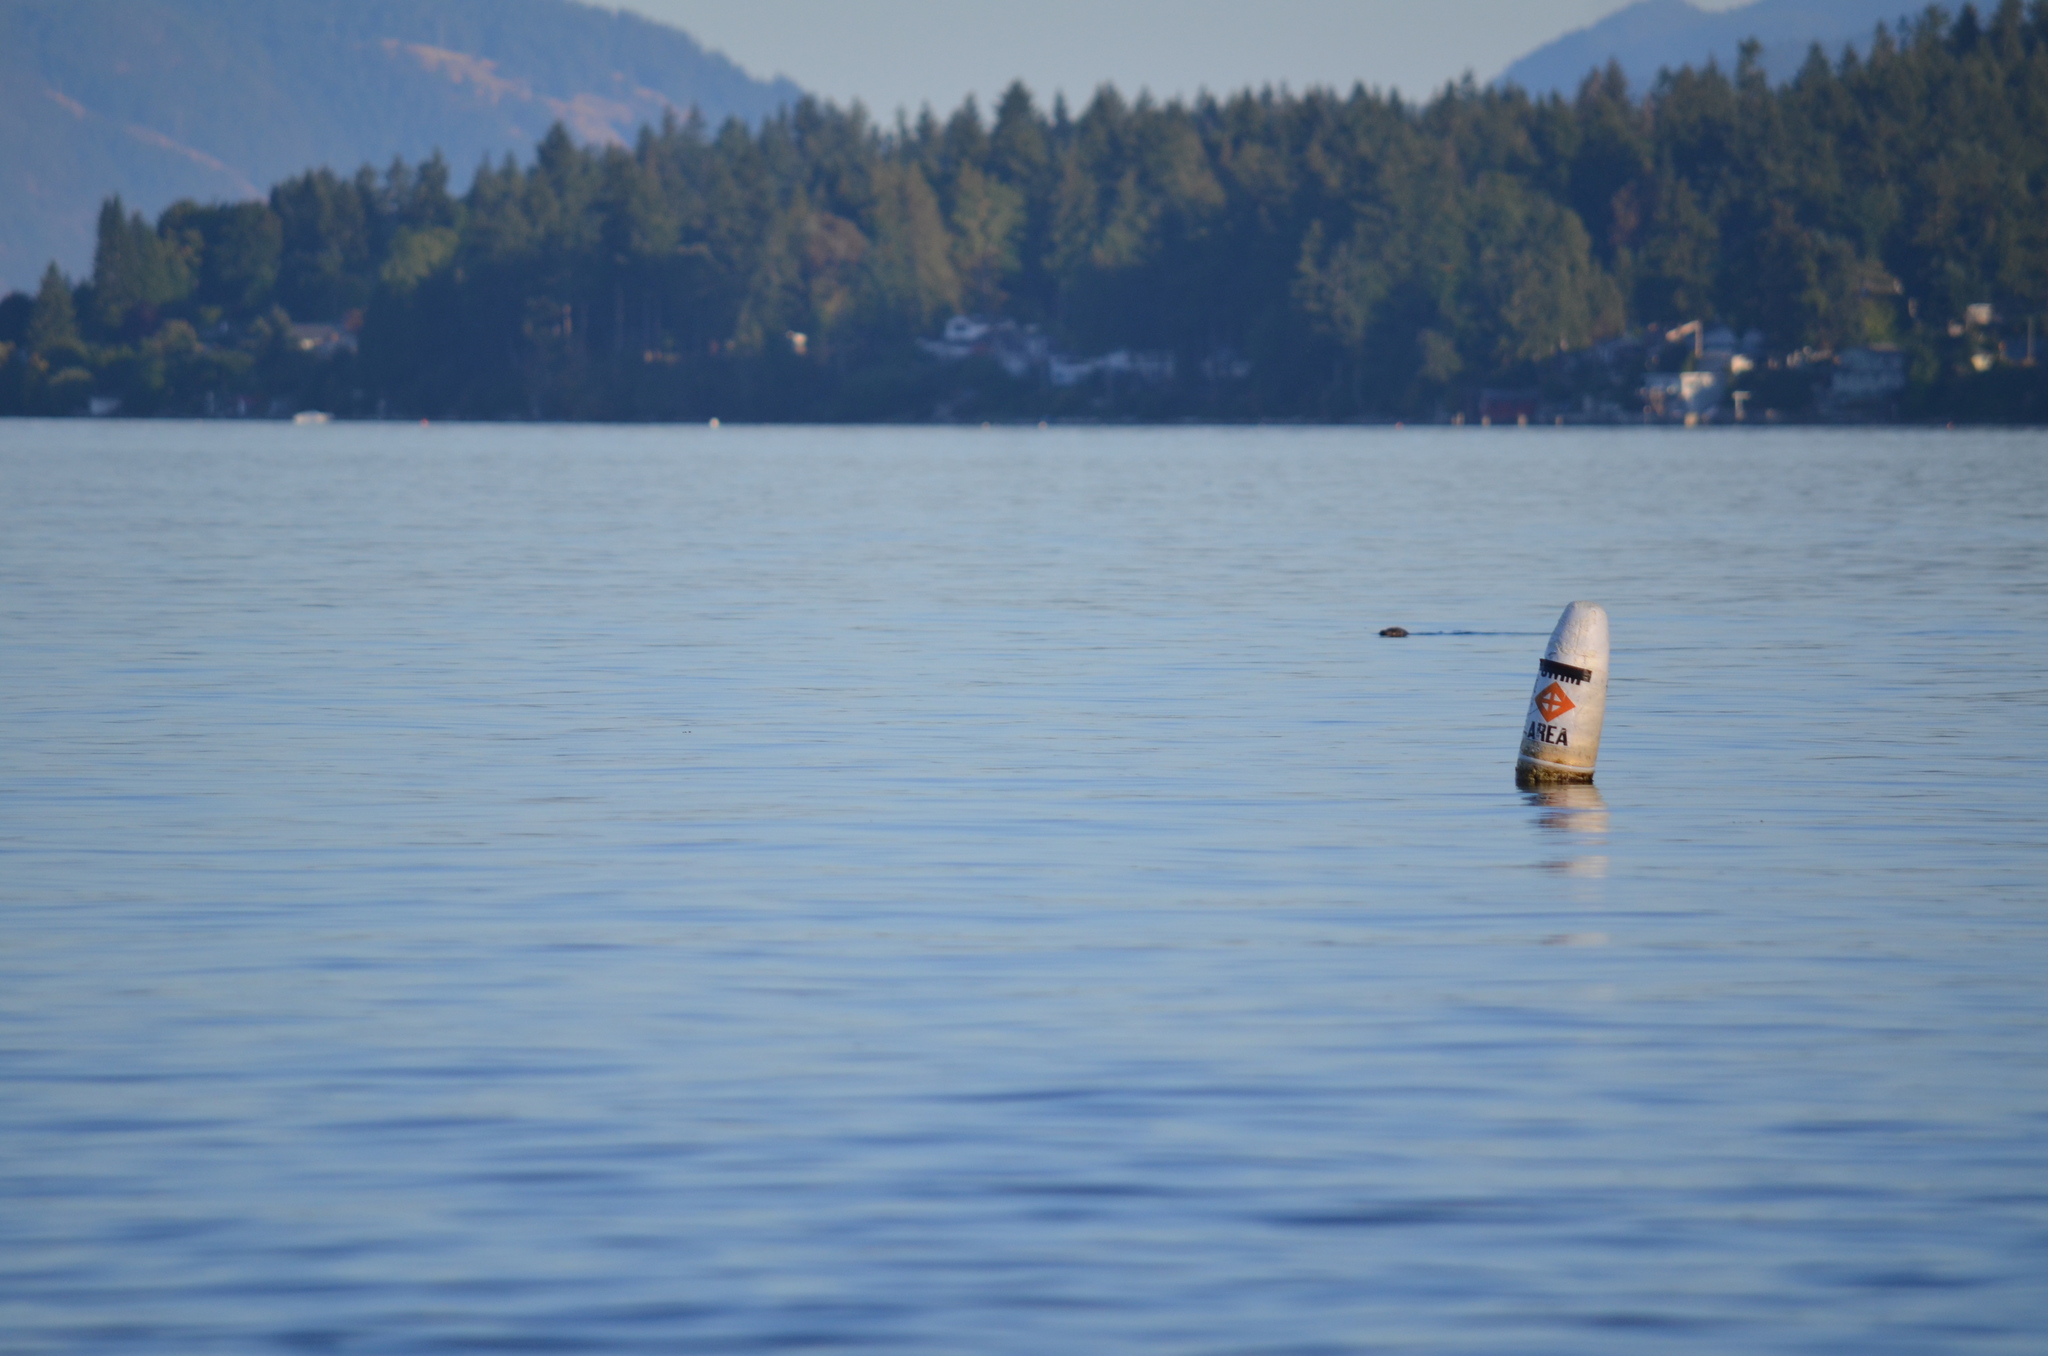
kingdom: Animalia
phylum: Chordata
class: Mammalia
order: Carnivora
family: Phocidae
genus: Phoca
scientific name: Phoca vitulina
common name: Harbor seal
